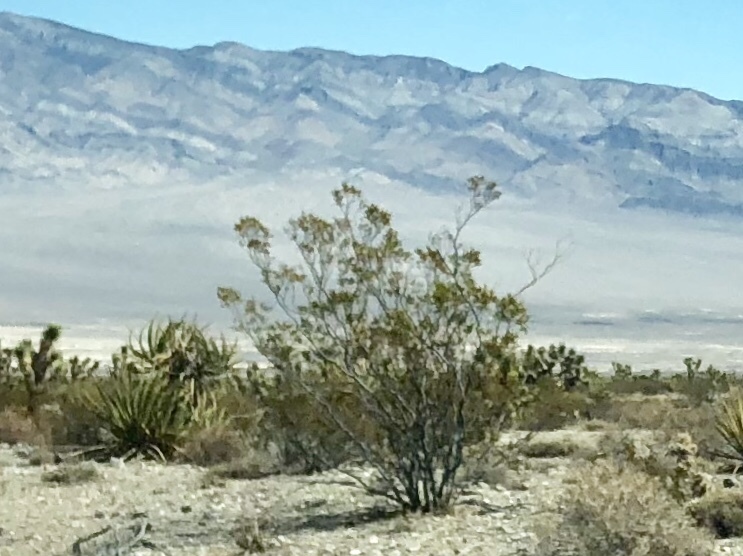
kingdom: Plantae
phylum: Tracheophyta
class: Magnoliopsida
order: Zygophyllales
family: Zygophyllaceae
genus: Larrea
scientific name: Larrea tridentata
